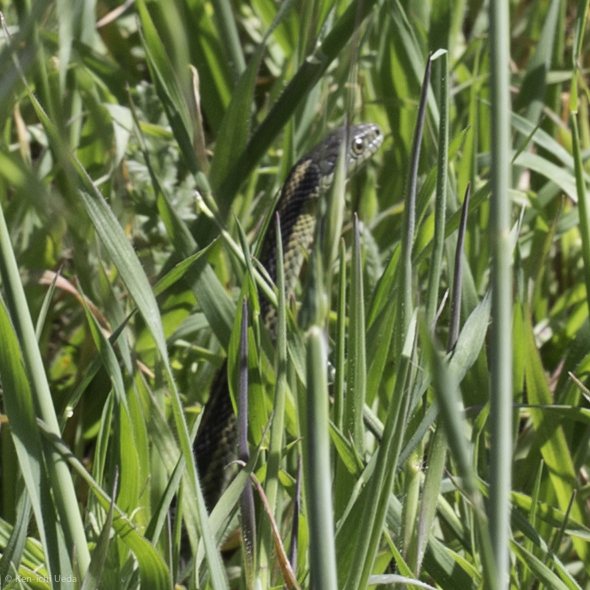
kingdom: Animalia
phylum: Chordata
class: Squamata
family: Colubridae
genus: Thamnophis
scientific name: Thamnophis atratus
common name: Pacific coast aquatic garter snake
